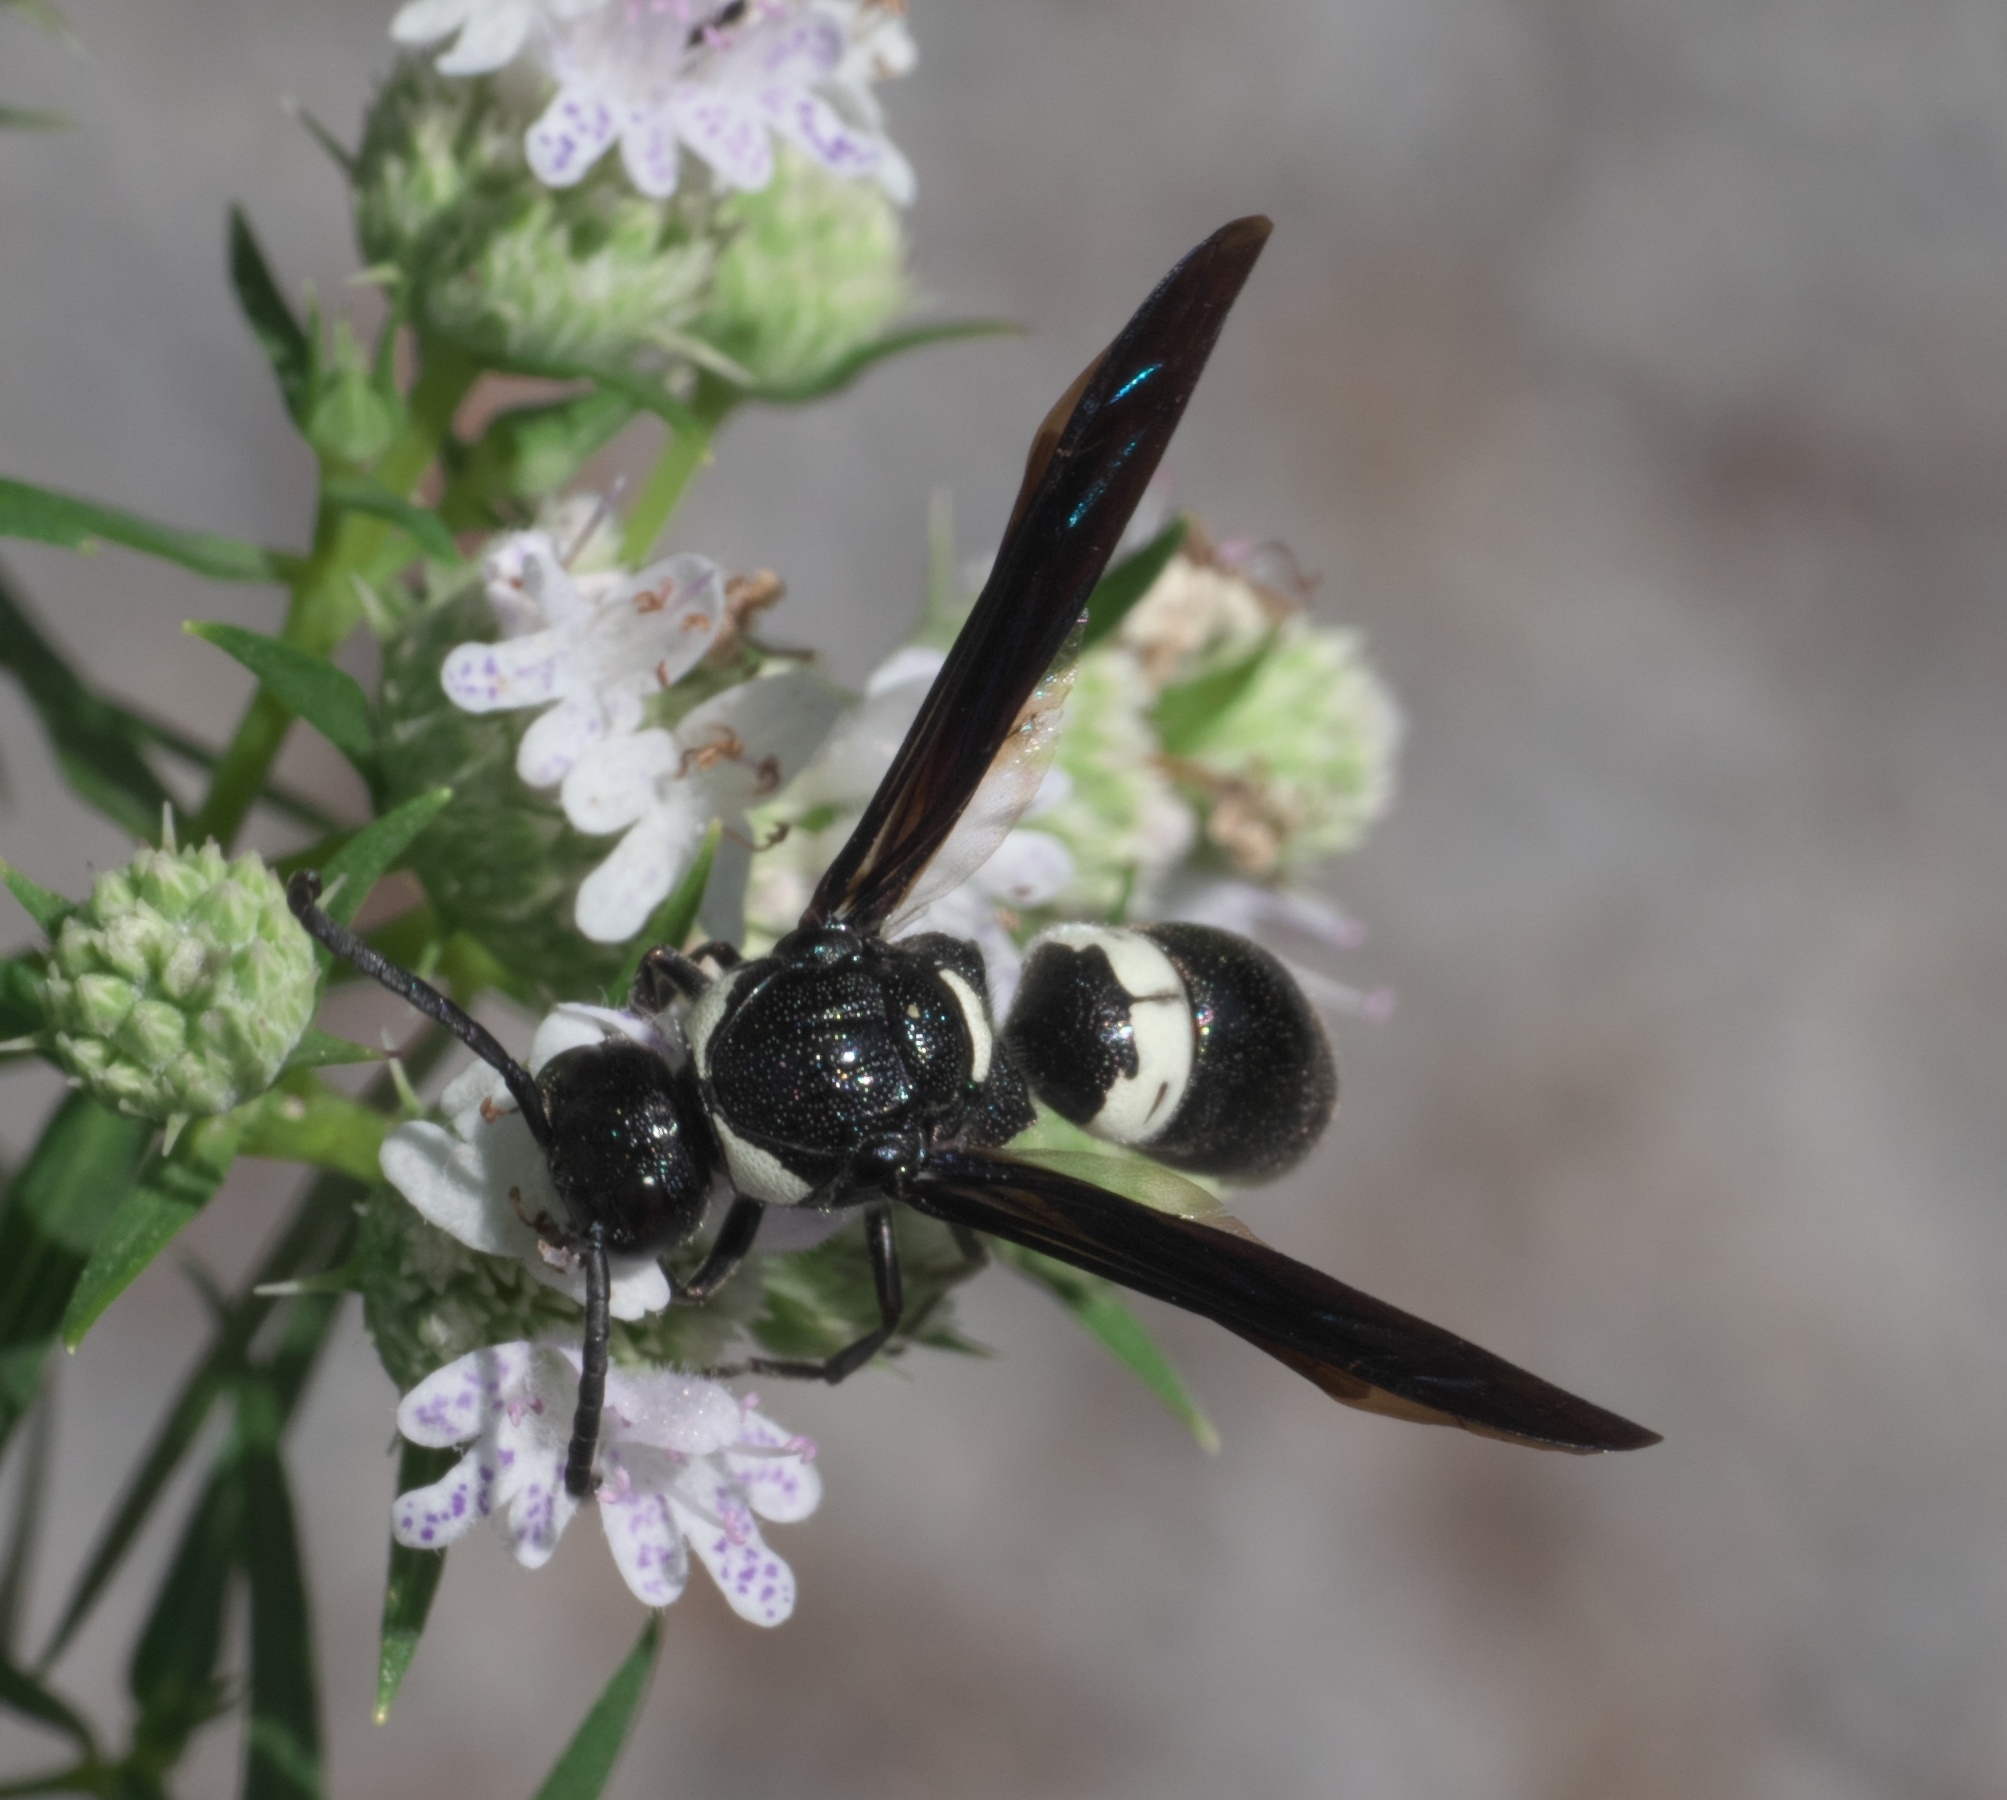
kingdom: Animalia
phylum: Arthropoda
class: Insecta
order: Hymenoptera
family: Eumenidae
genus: Monobia
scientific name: Monobia quadridens
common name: Four-toothed mason wasp
